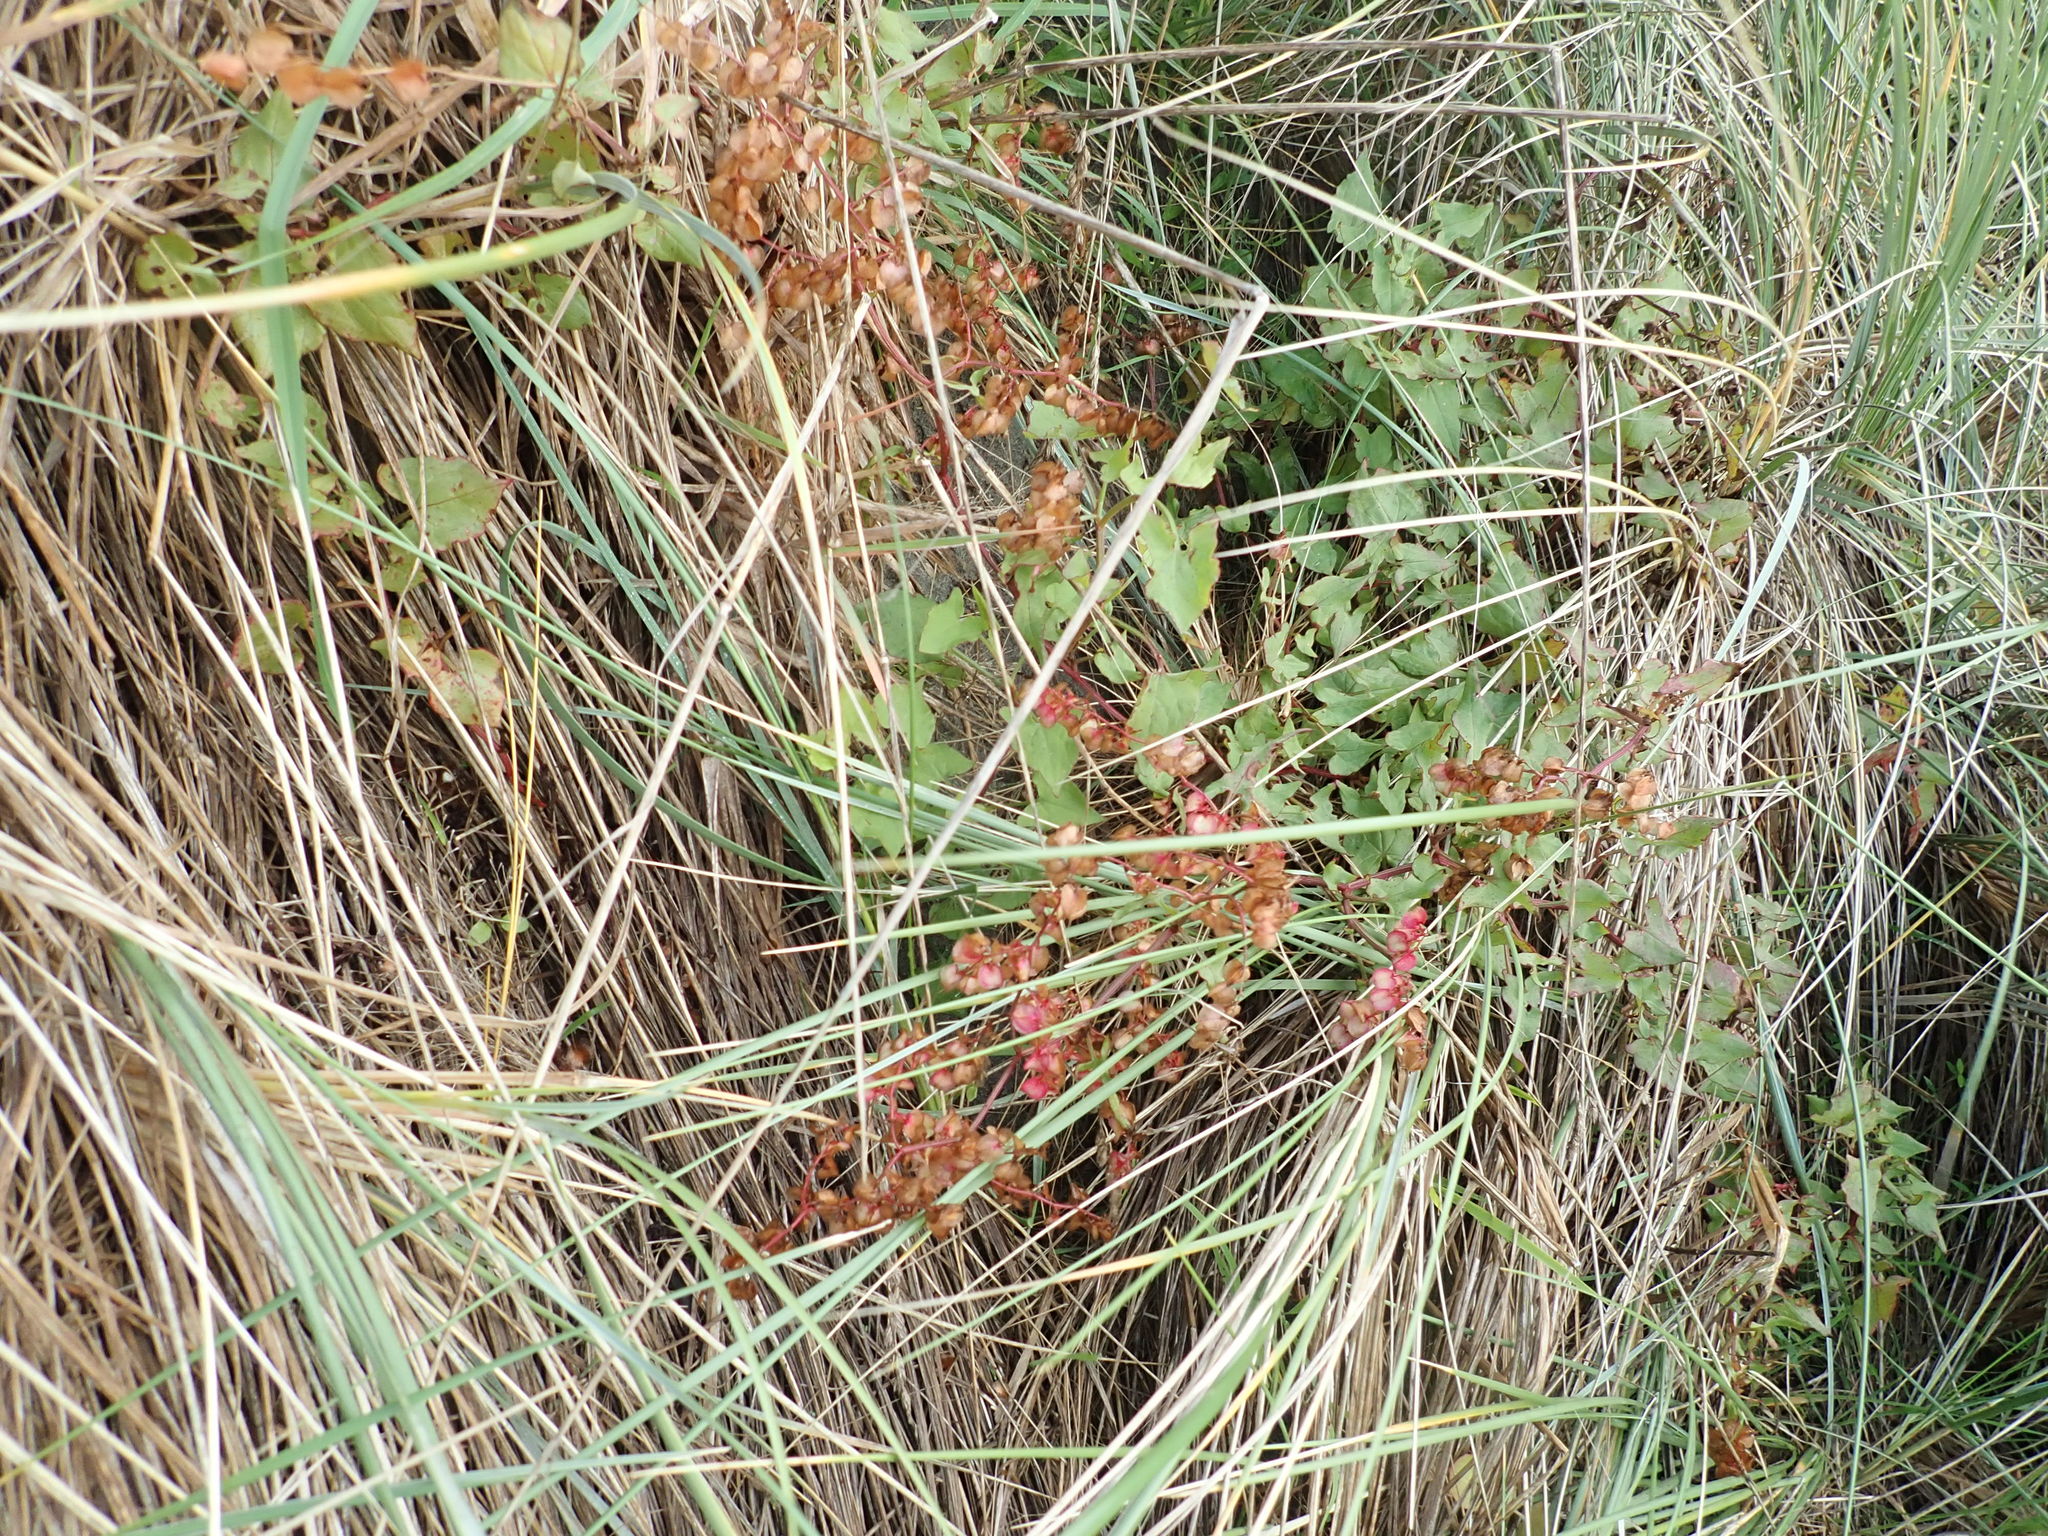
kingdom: Plantae
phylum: Tracheophyta
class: Magnoliopsida
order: Caryophyllales
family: Polygonaceae
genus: Rumex
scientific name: Rumex sagittatus
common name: Climbing dock
